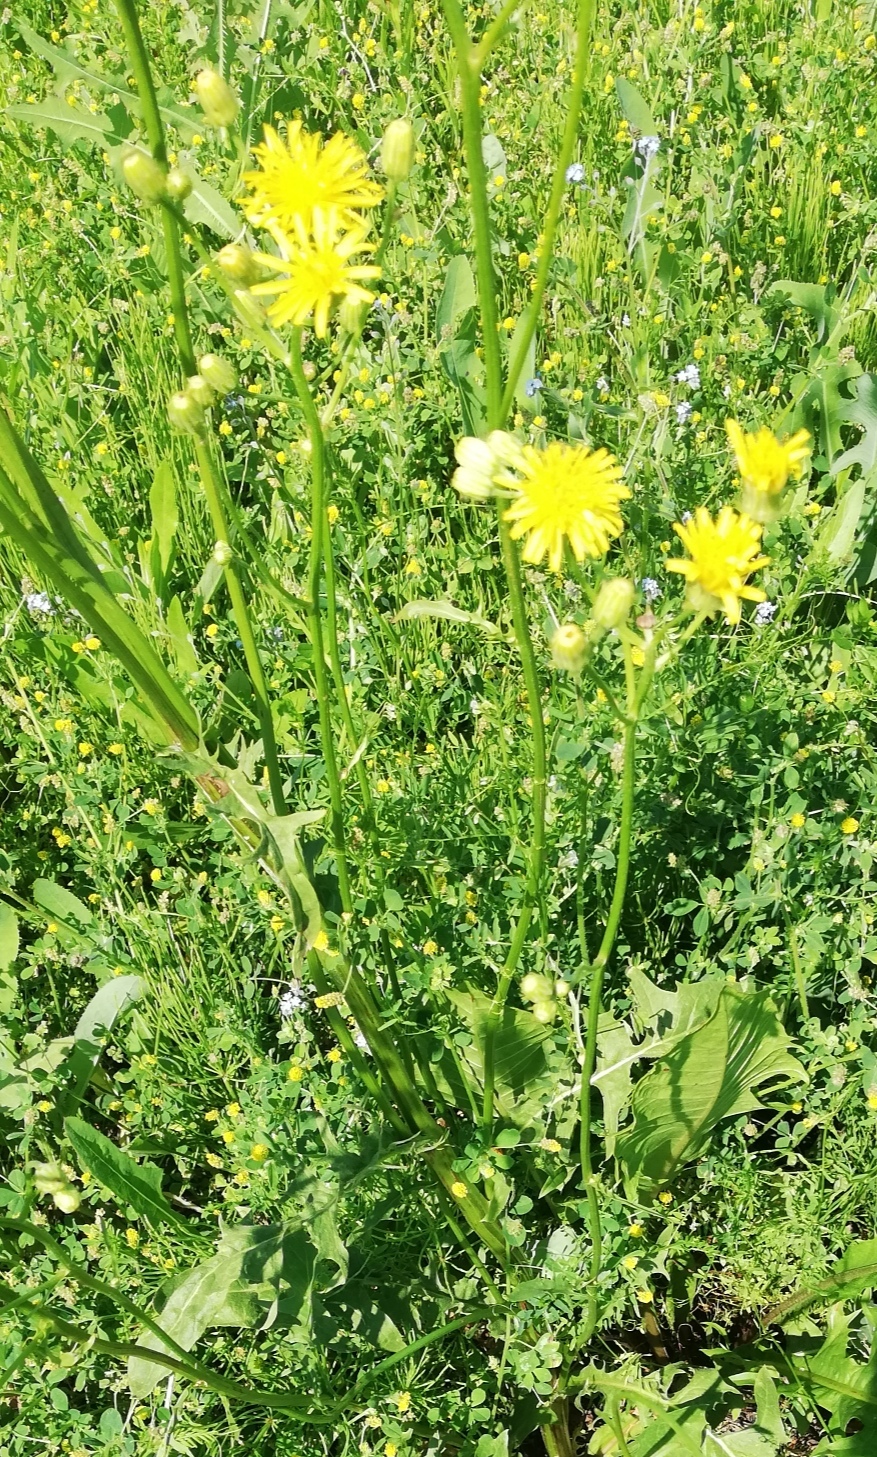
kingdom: Plantae
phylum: Tracheophyta
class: Magnoliopsida
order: Asterales
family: Asteraceae
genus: Crepis
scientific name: Crepis biennis
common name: Rough hawk's-beard
